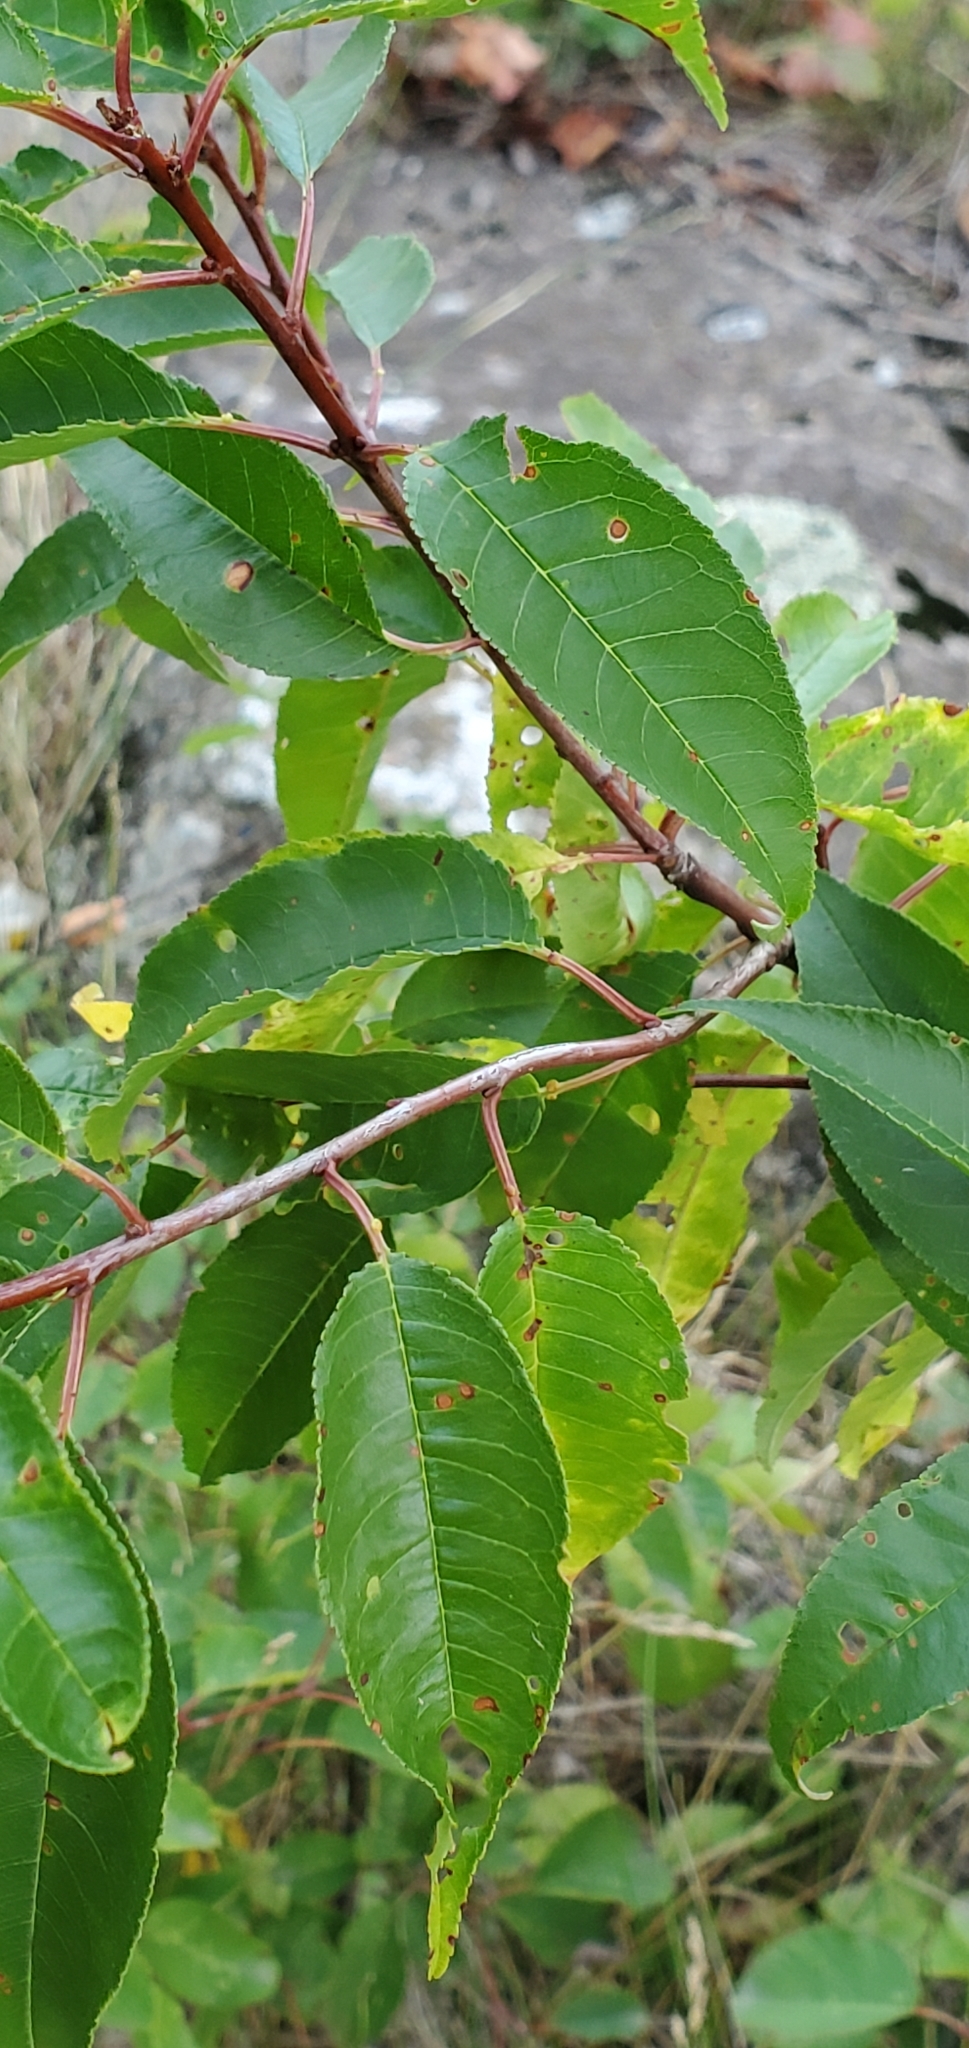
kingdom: Plantae
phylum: Tracheophyta
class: Magnoliopsida
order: Rosales
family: Rosaceae
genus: Prunus
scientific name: Prunus pensylvanica
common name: Pin cherry
